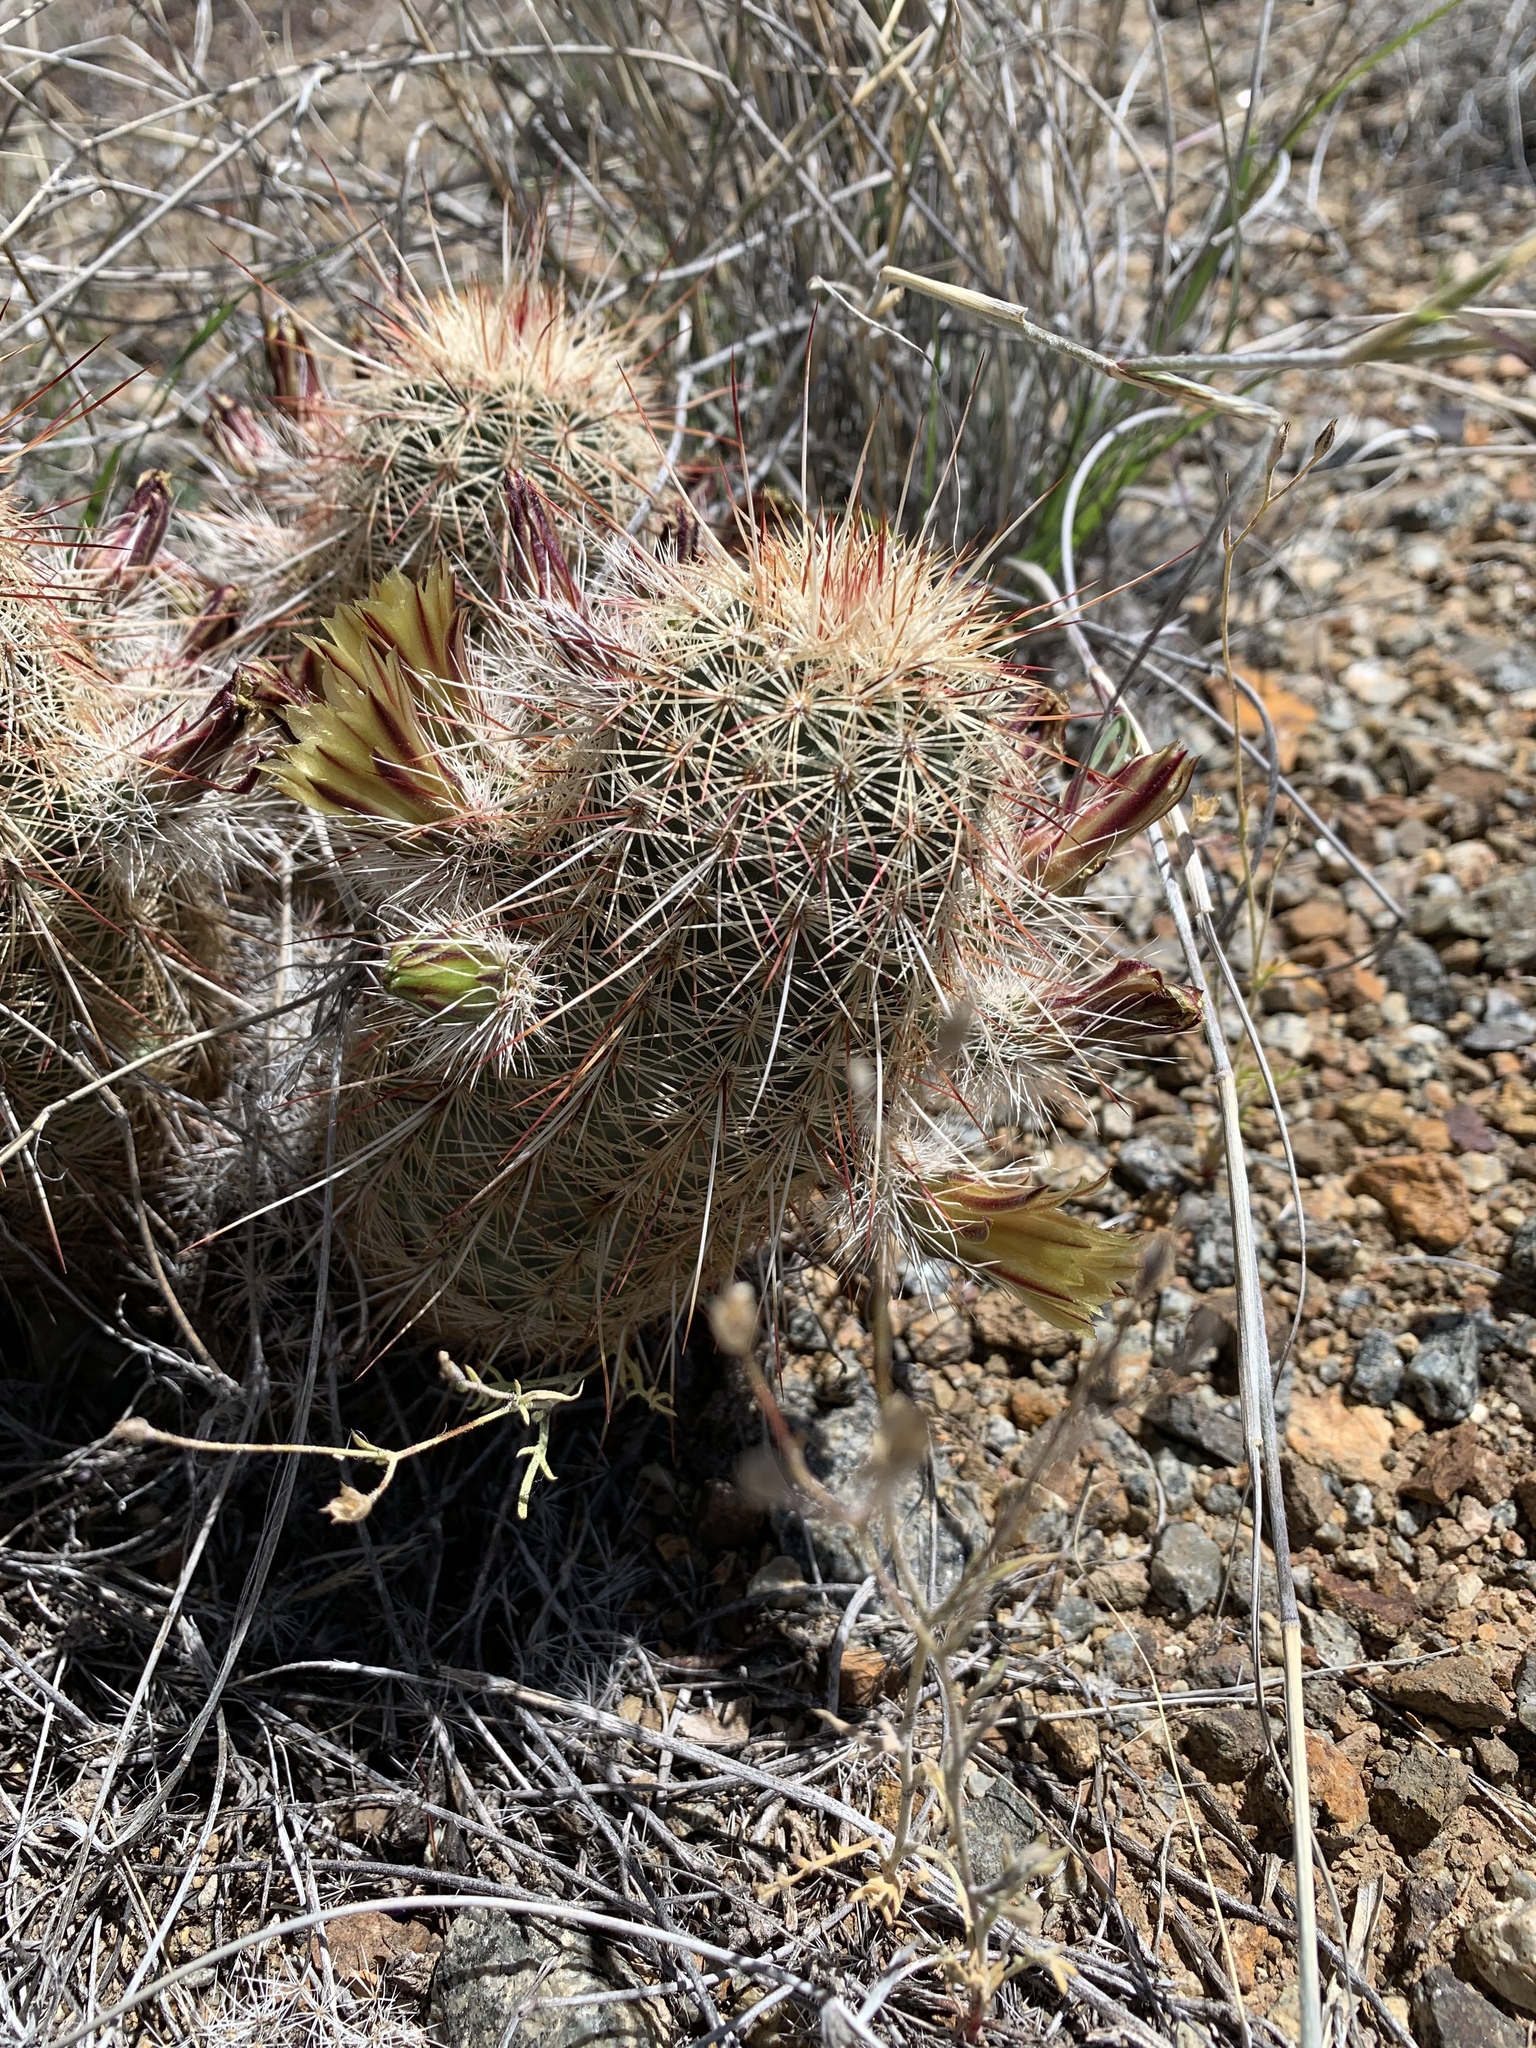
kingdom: Plantae
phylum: Tracheophyta
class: Magnoliopsida
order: Caryophyllales
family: Cactaceae
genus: Echinocereus
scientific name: Echinocereus viridiflorus
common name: Nylon hedgehog cactus
